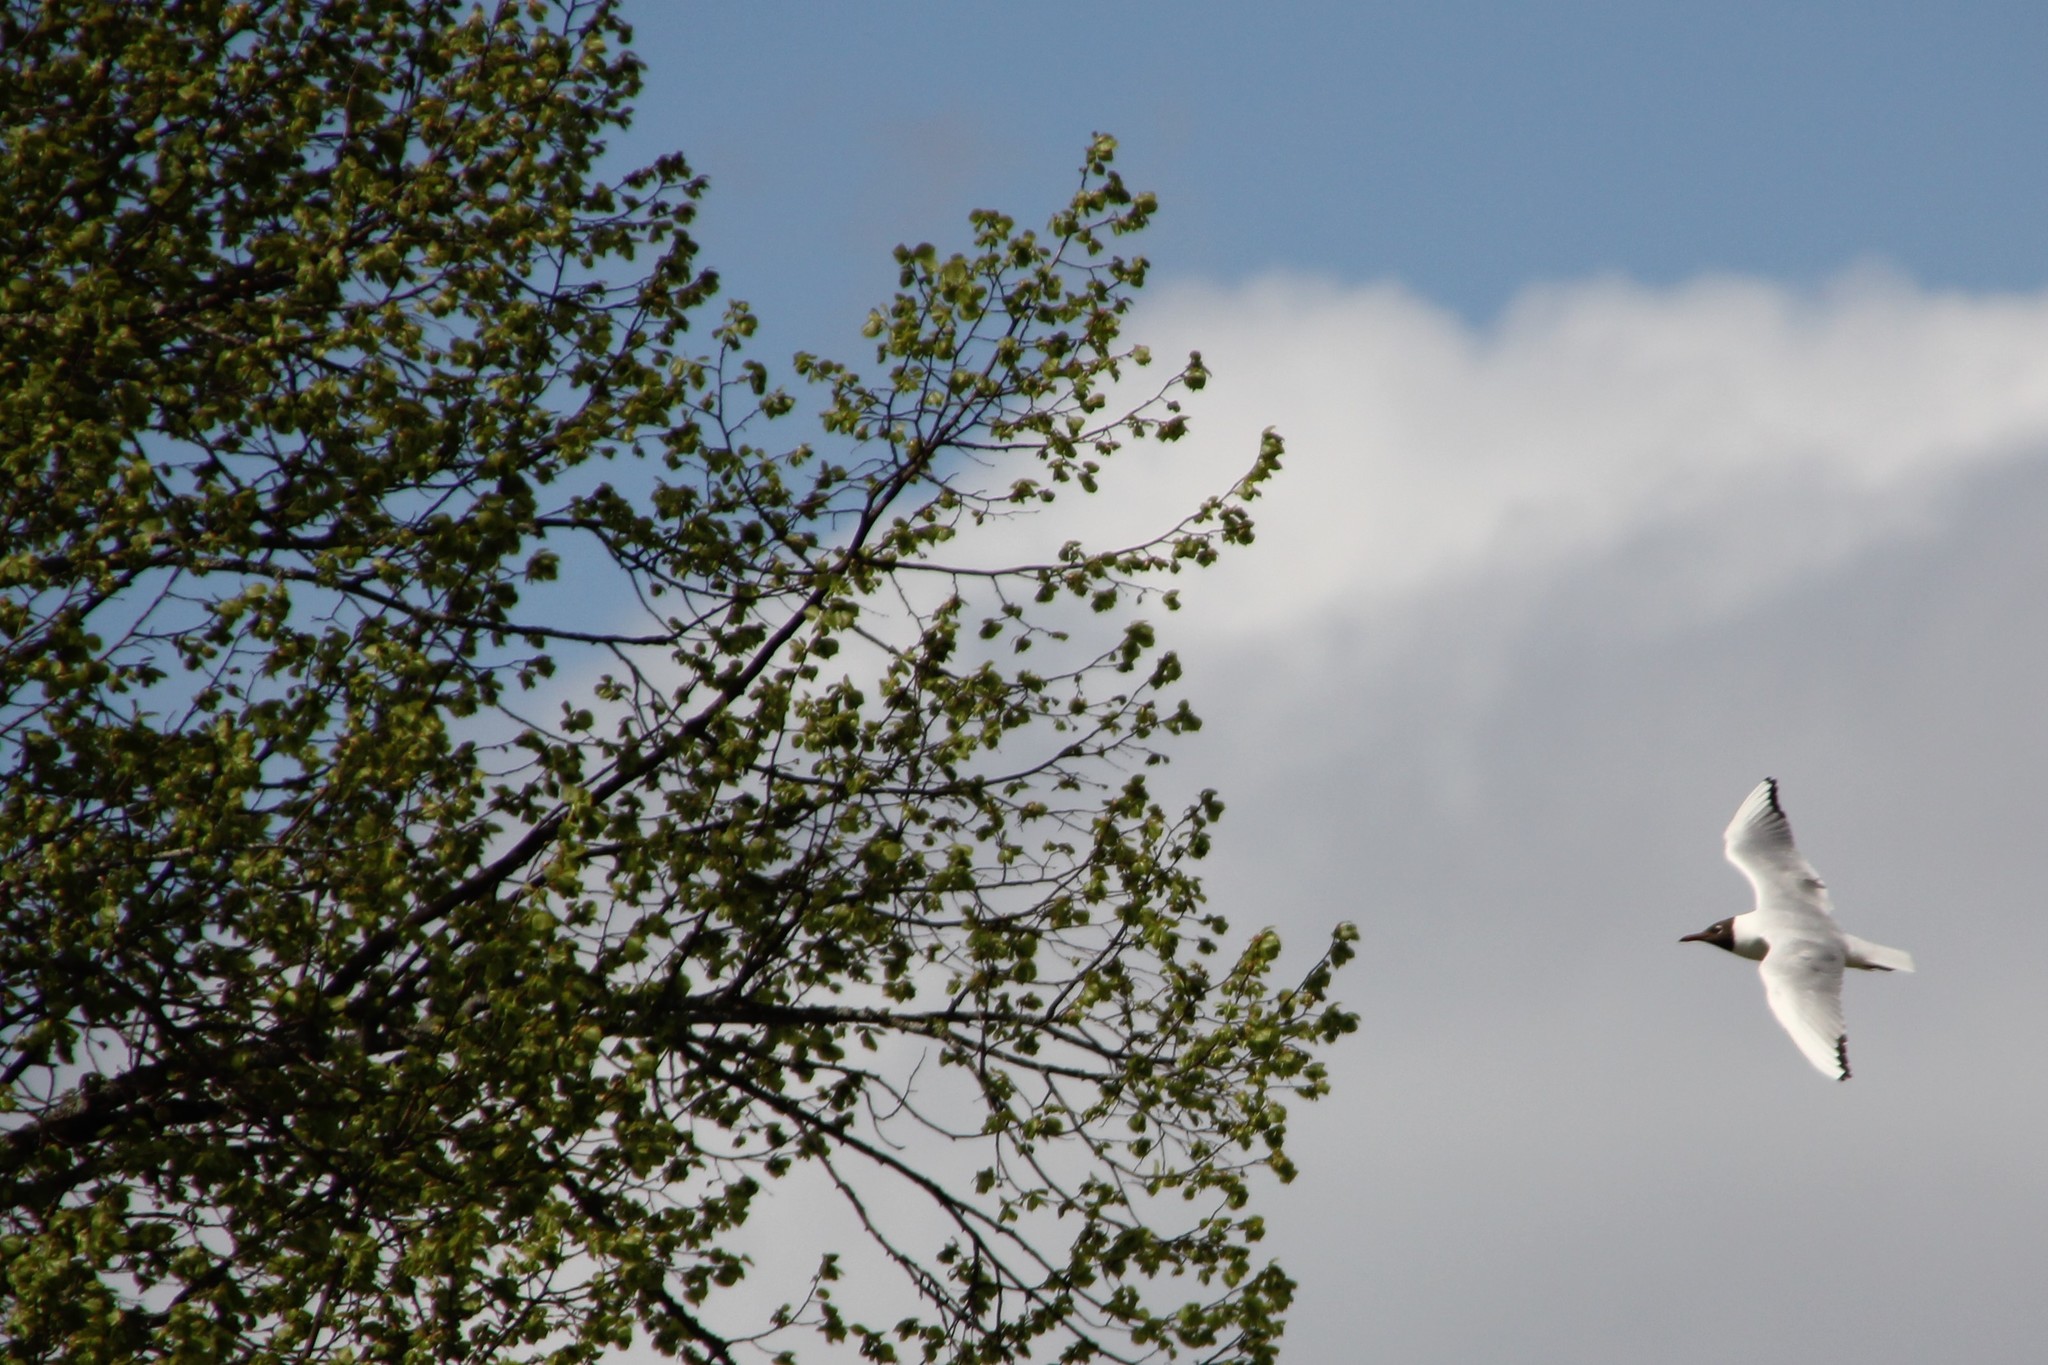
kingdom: Animalia
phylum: Chordata
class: Aves
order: Charadriiformes
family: Laridae
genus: Chroicocephalus
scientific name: Chroicocephalus ridibundus
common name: Black-headed gull
